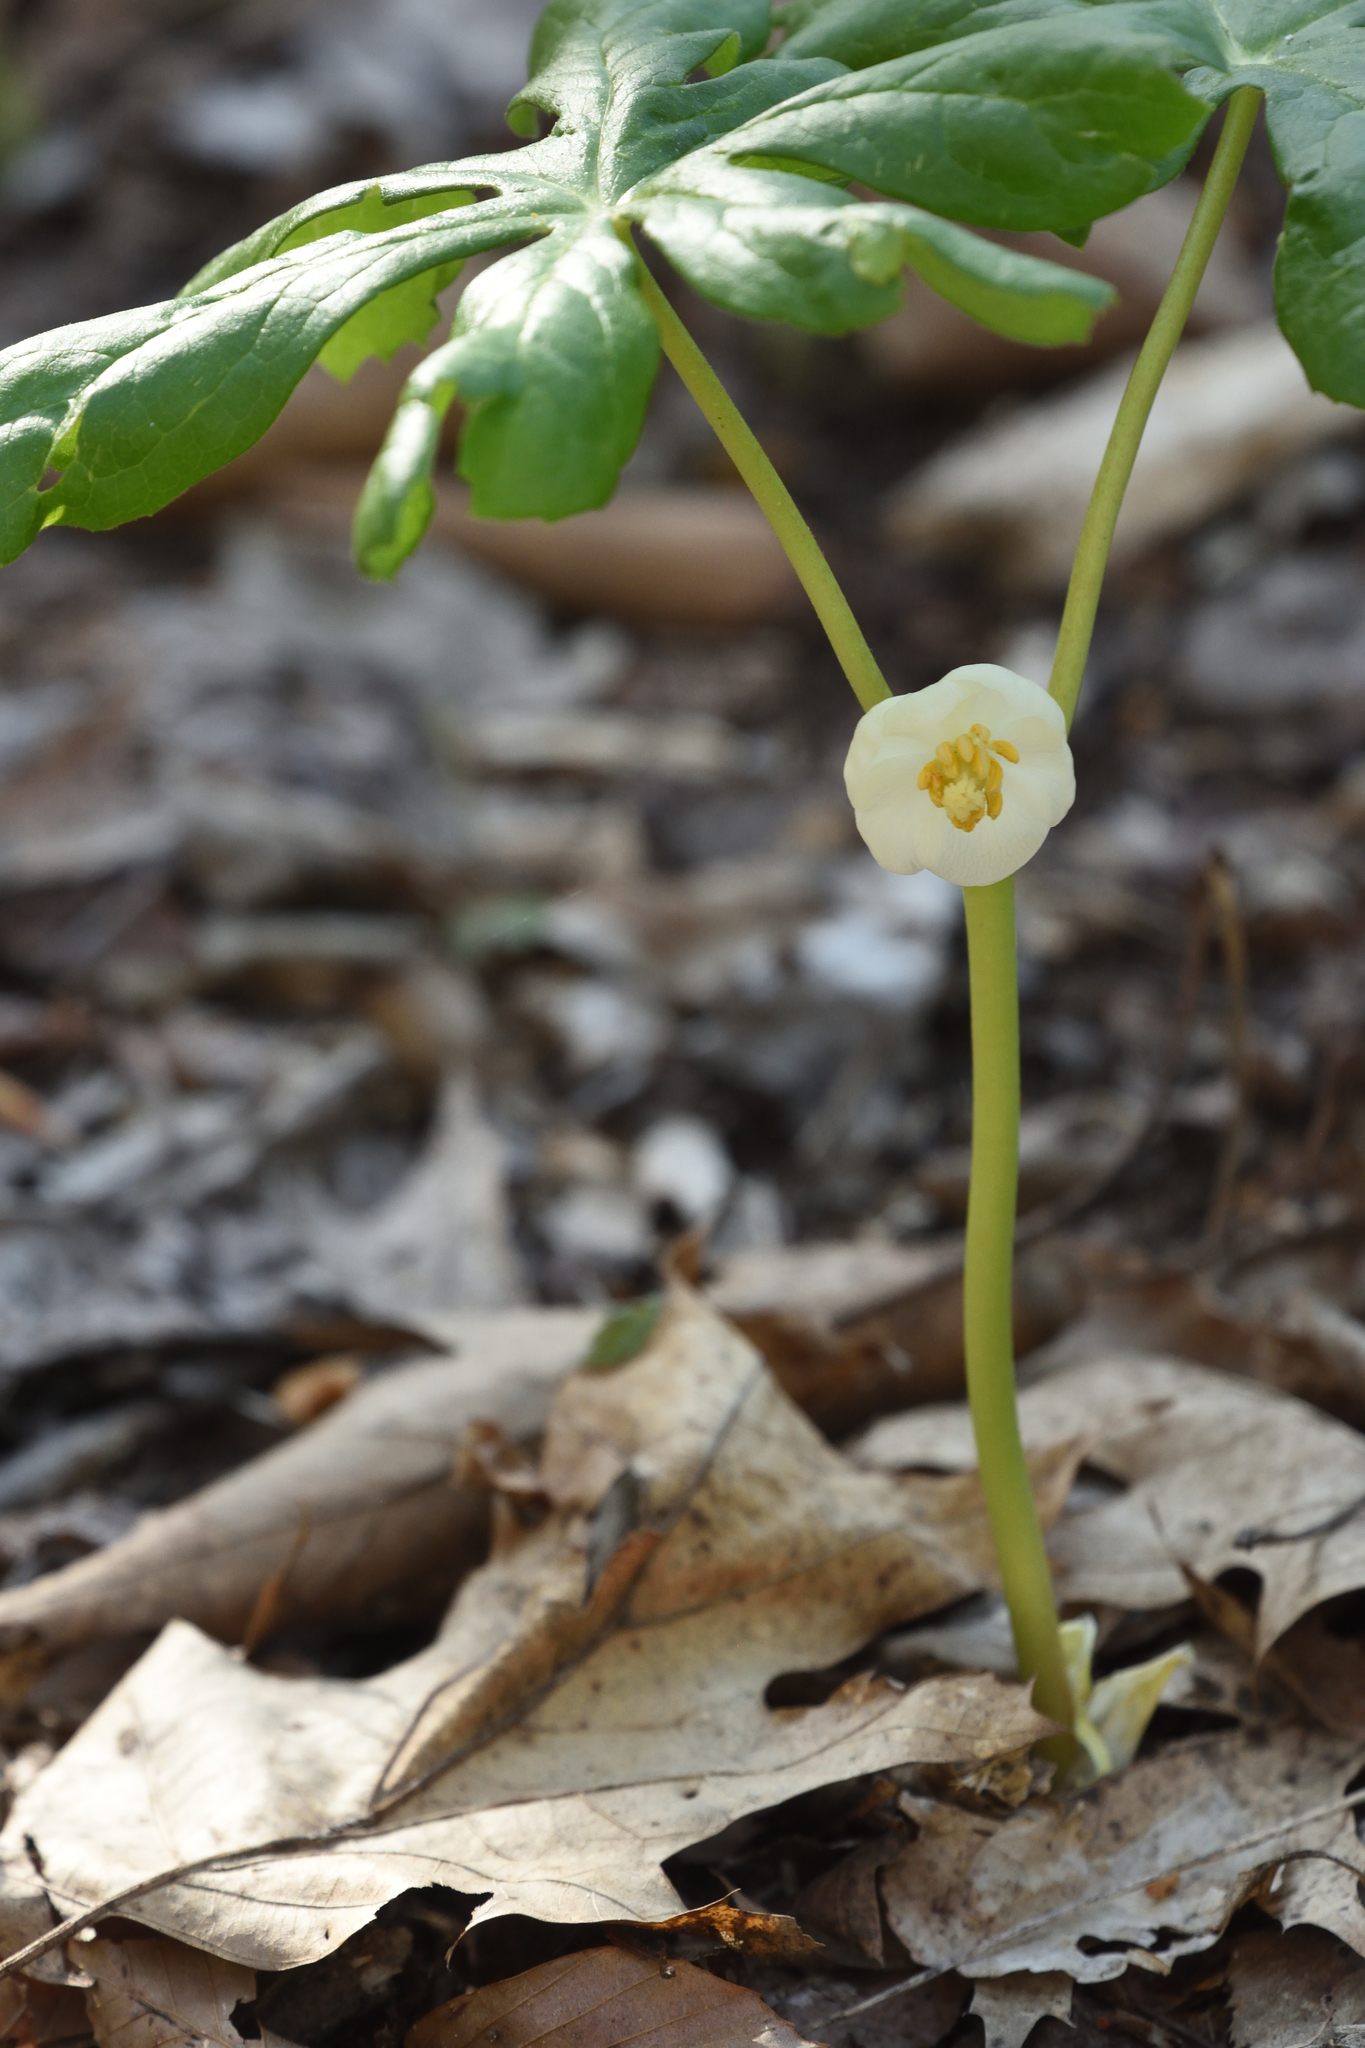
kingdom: Plantae
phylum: Tracheophyta
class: Magnoliopsida
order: Ranunculales
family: Berberidaceae
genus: Podophyllum
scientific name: Podophyllum peltatum
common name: Wild mandrake
